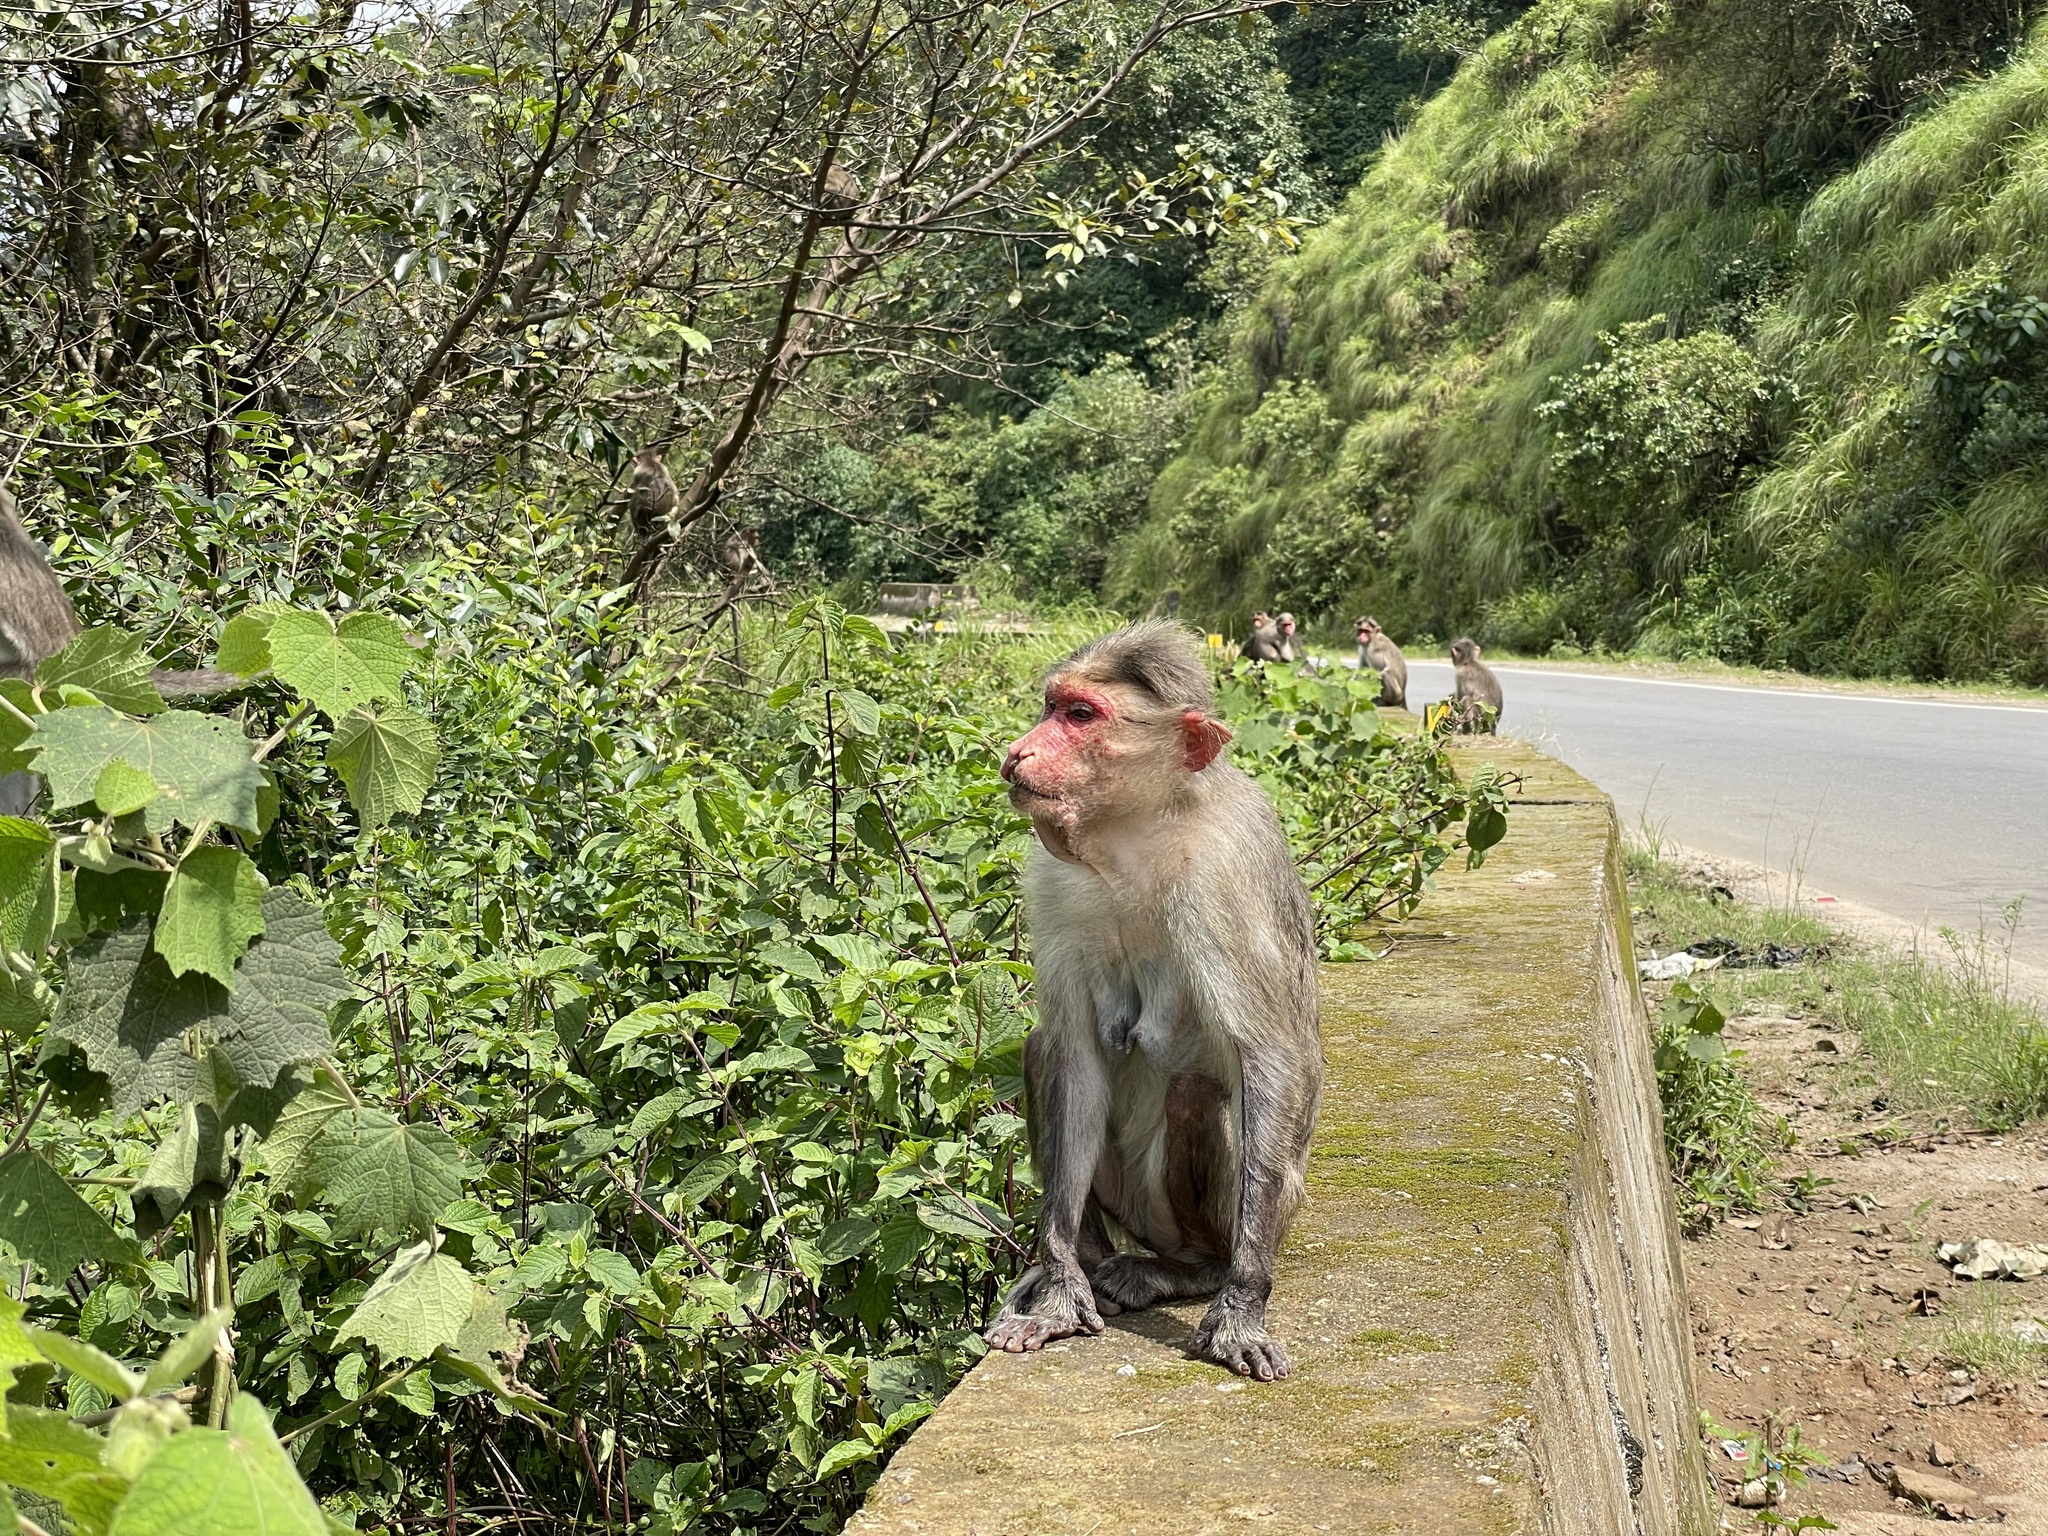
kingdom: Animalia
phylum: Chordata
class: Mammalia
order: Primates
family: Cercopithecidae
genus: Macaca
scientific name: Macaca radiata
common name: Bonnet macaque
